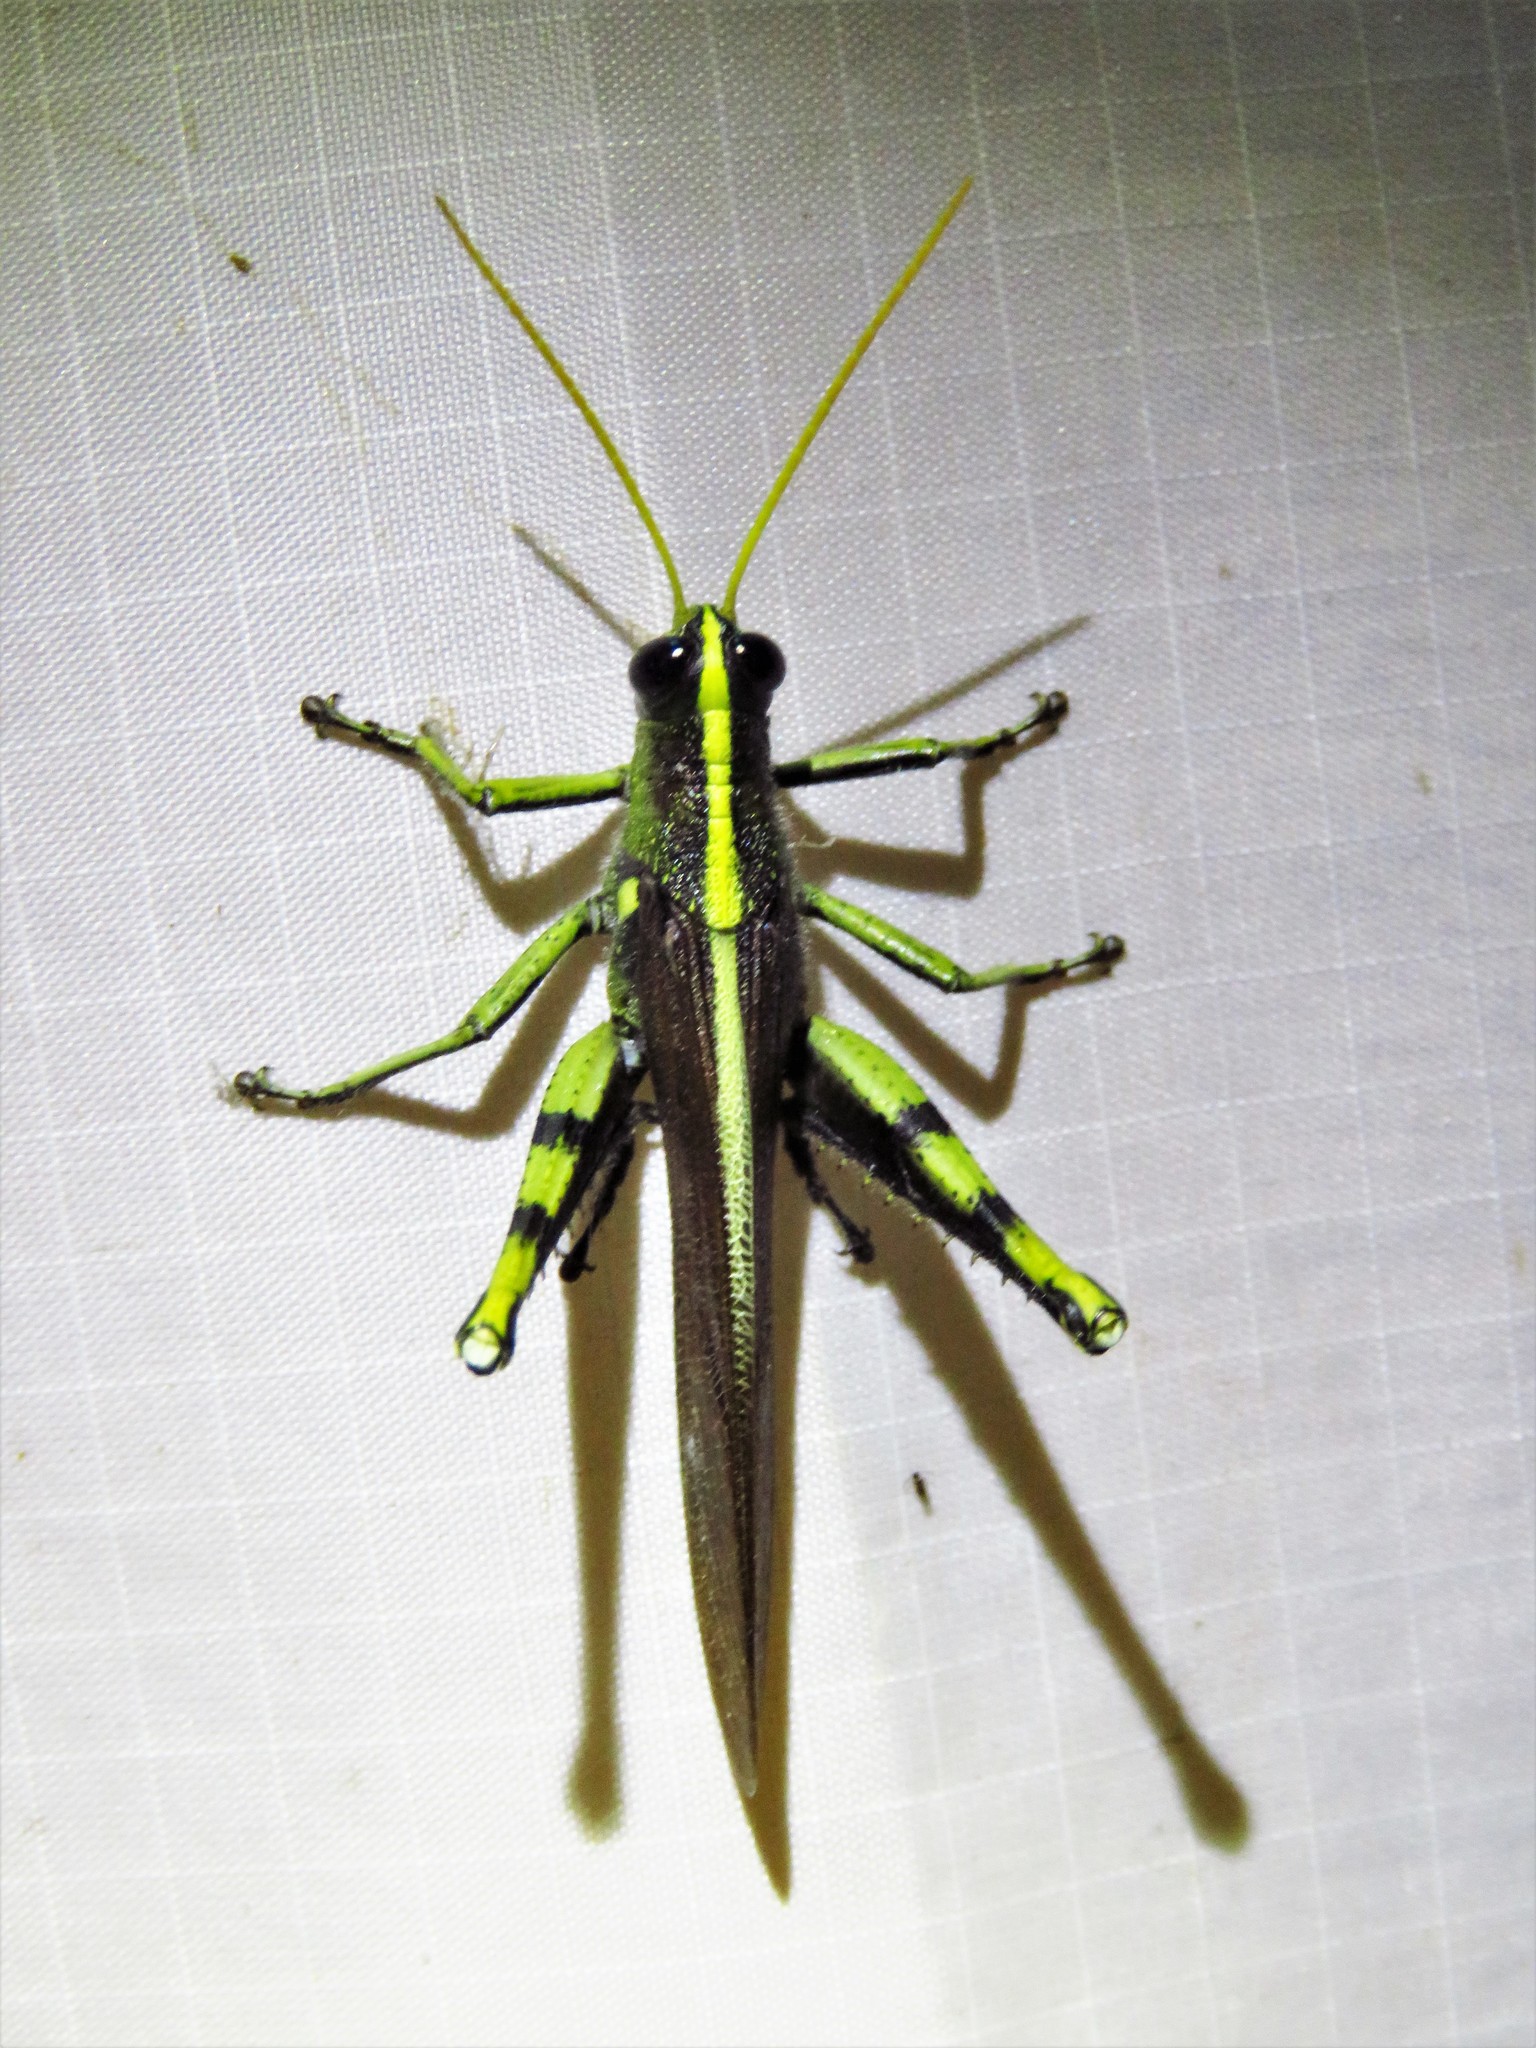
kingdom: Animalia
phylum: Arthropoda
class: Insecta
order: Orthoptera
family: Acrididae
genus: Schistocerca
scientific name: Schistocerca obscura
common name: Obscure bird grasshopper
